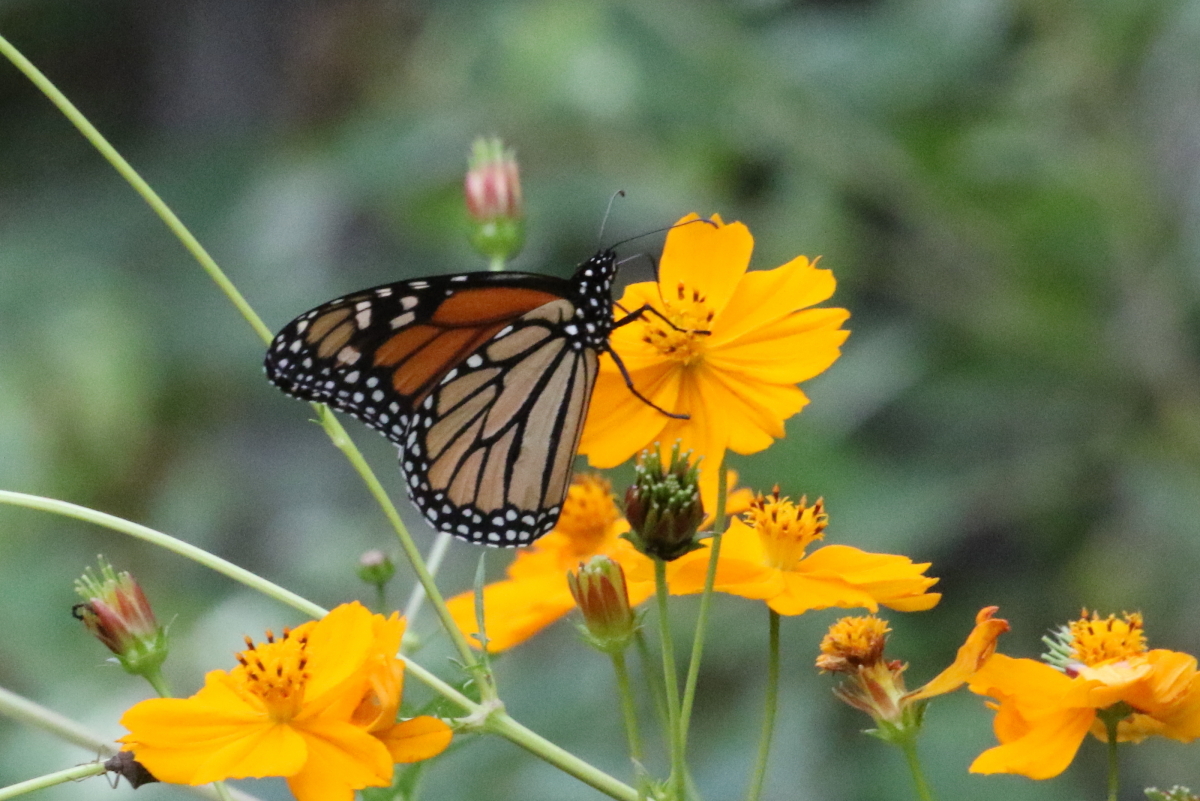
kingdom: Animalia
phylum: Arthropoda
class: Insecta
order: Lepidoptera
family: Nymphalidae
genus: Danaus
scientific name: Danaus plexippus
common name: Monarch
